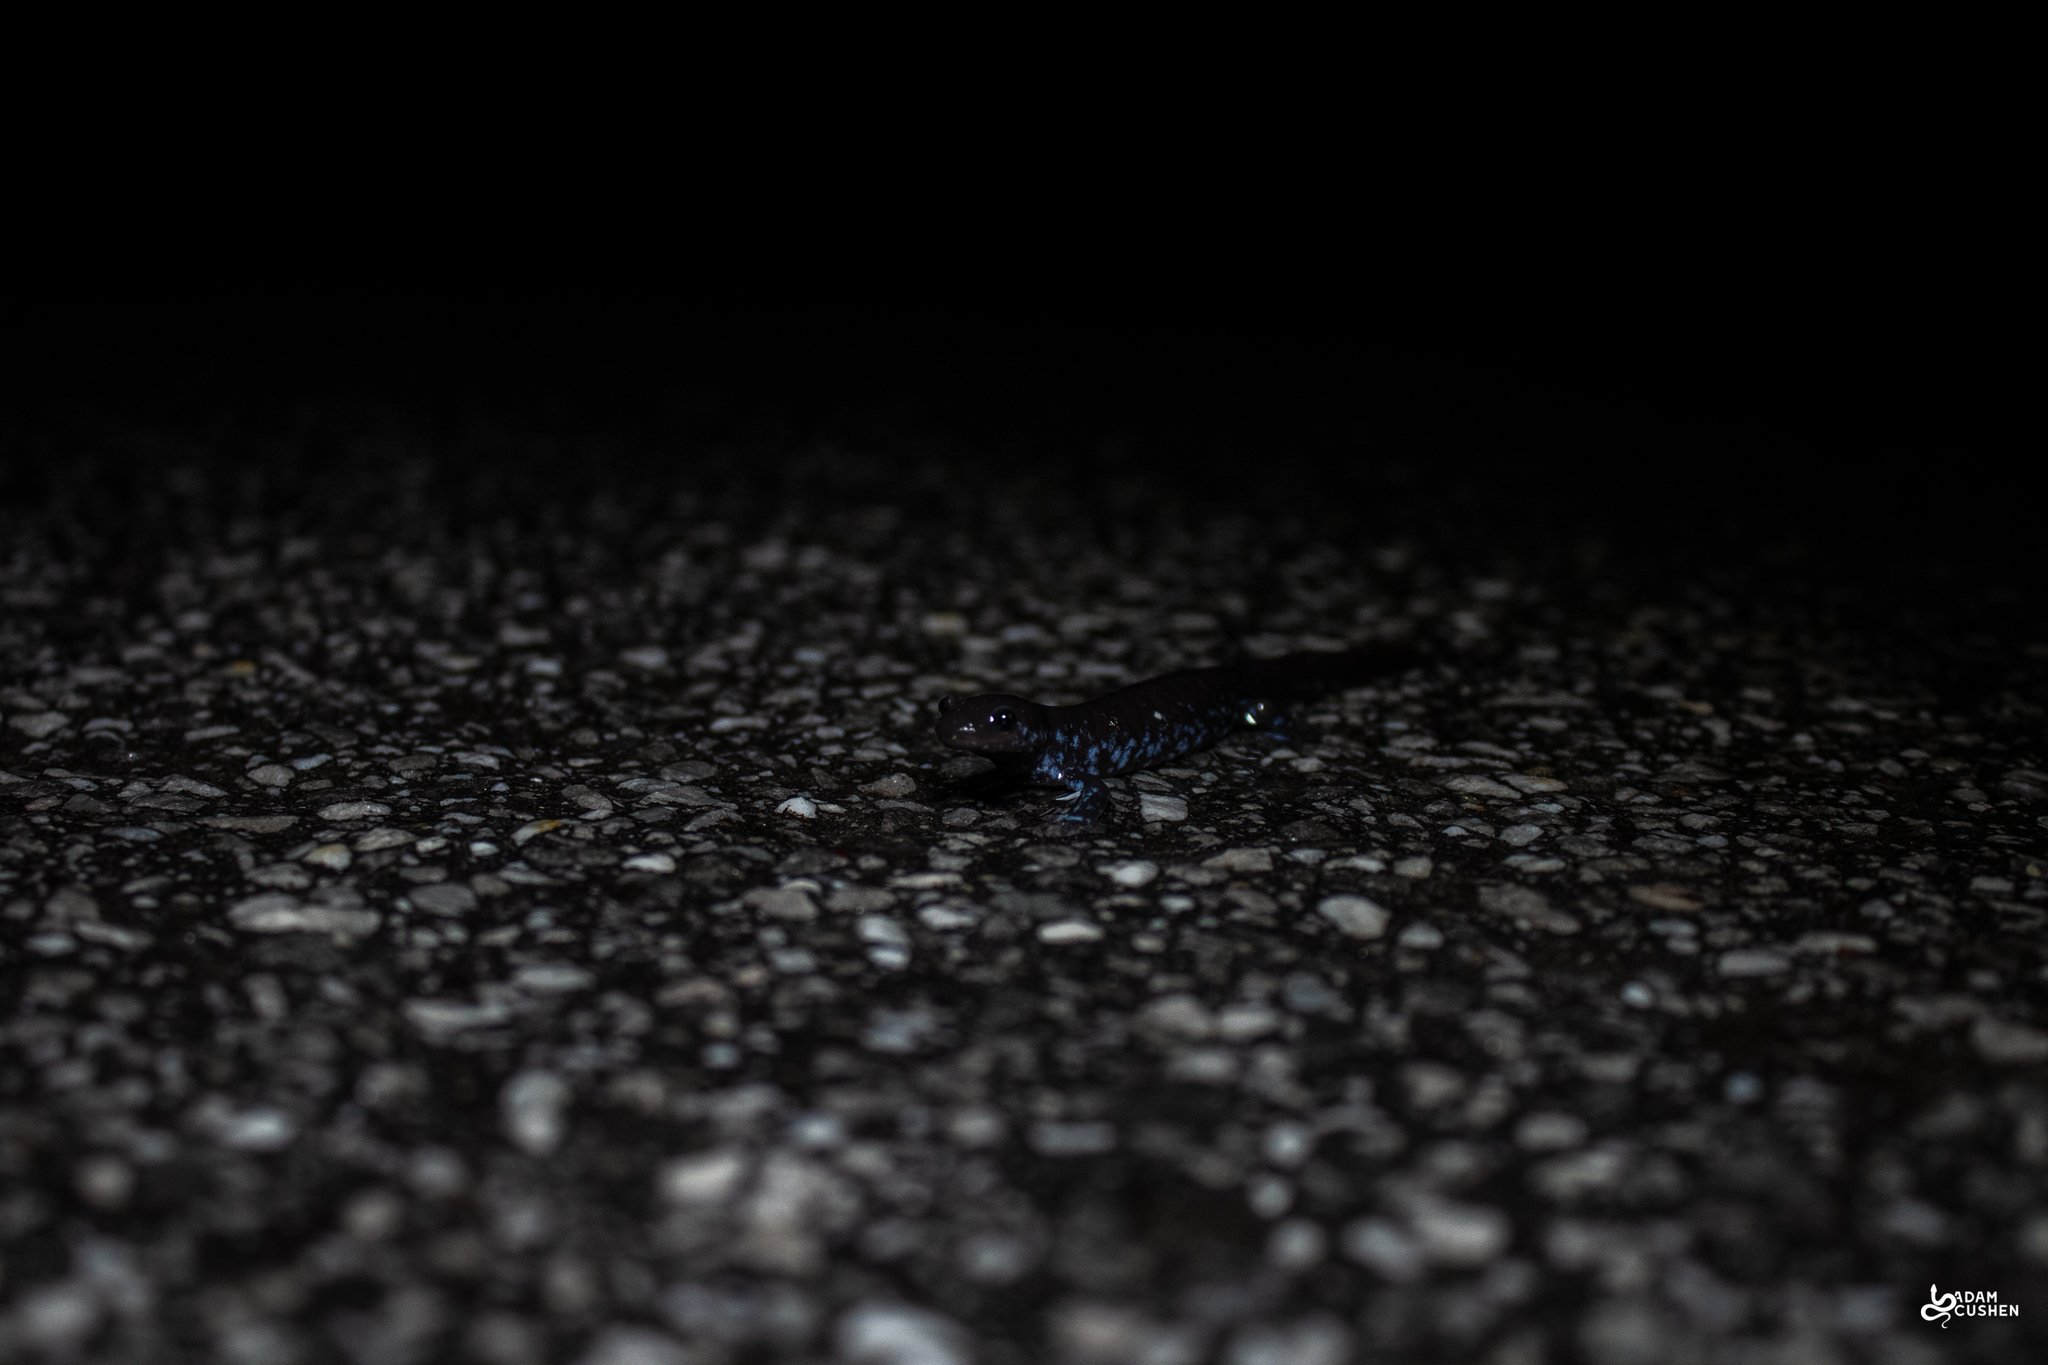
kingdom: Animalia
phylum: Chordata
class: Amphibia
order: Caudata
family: Ambystomatidae
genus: Ambystoma
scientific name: Ambystoma laterale
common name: Blue-spotted salamander
